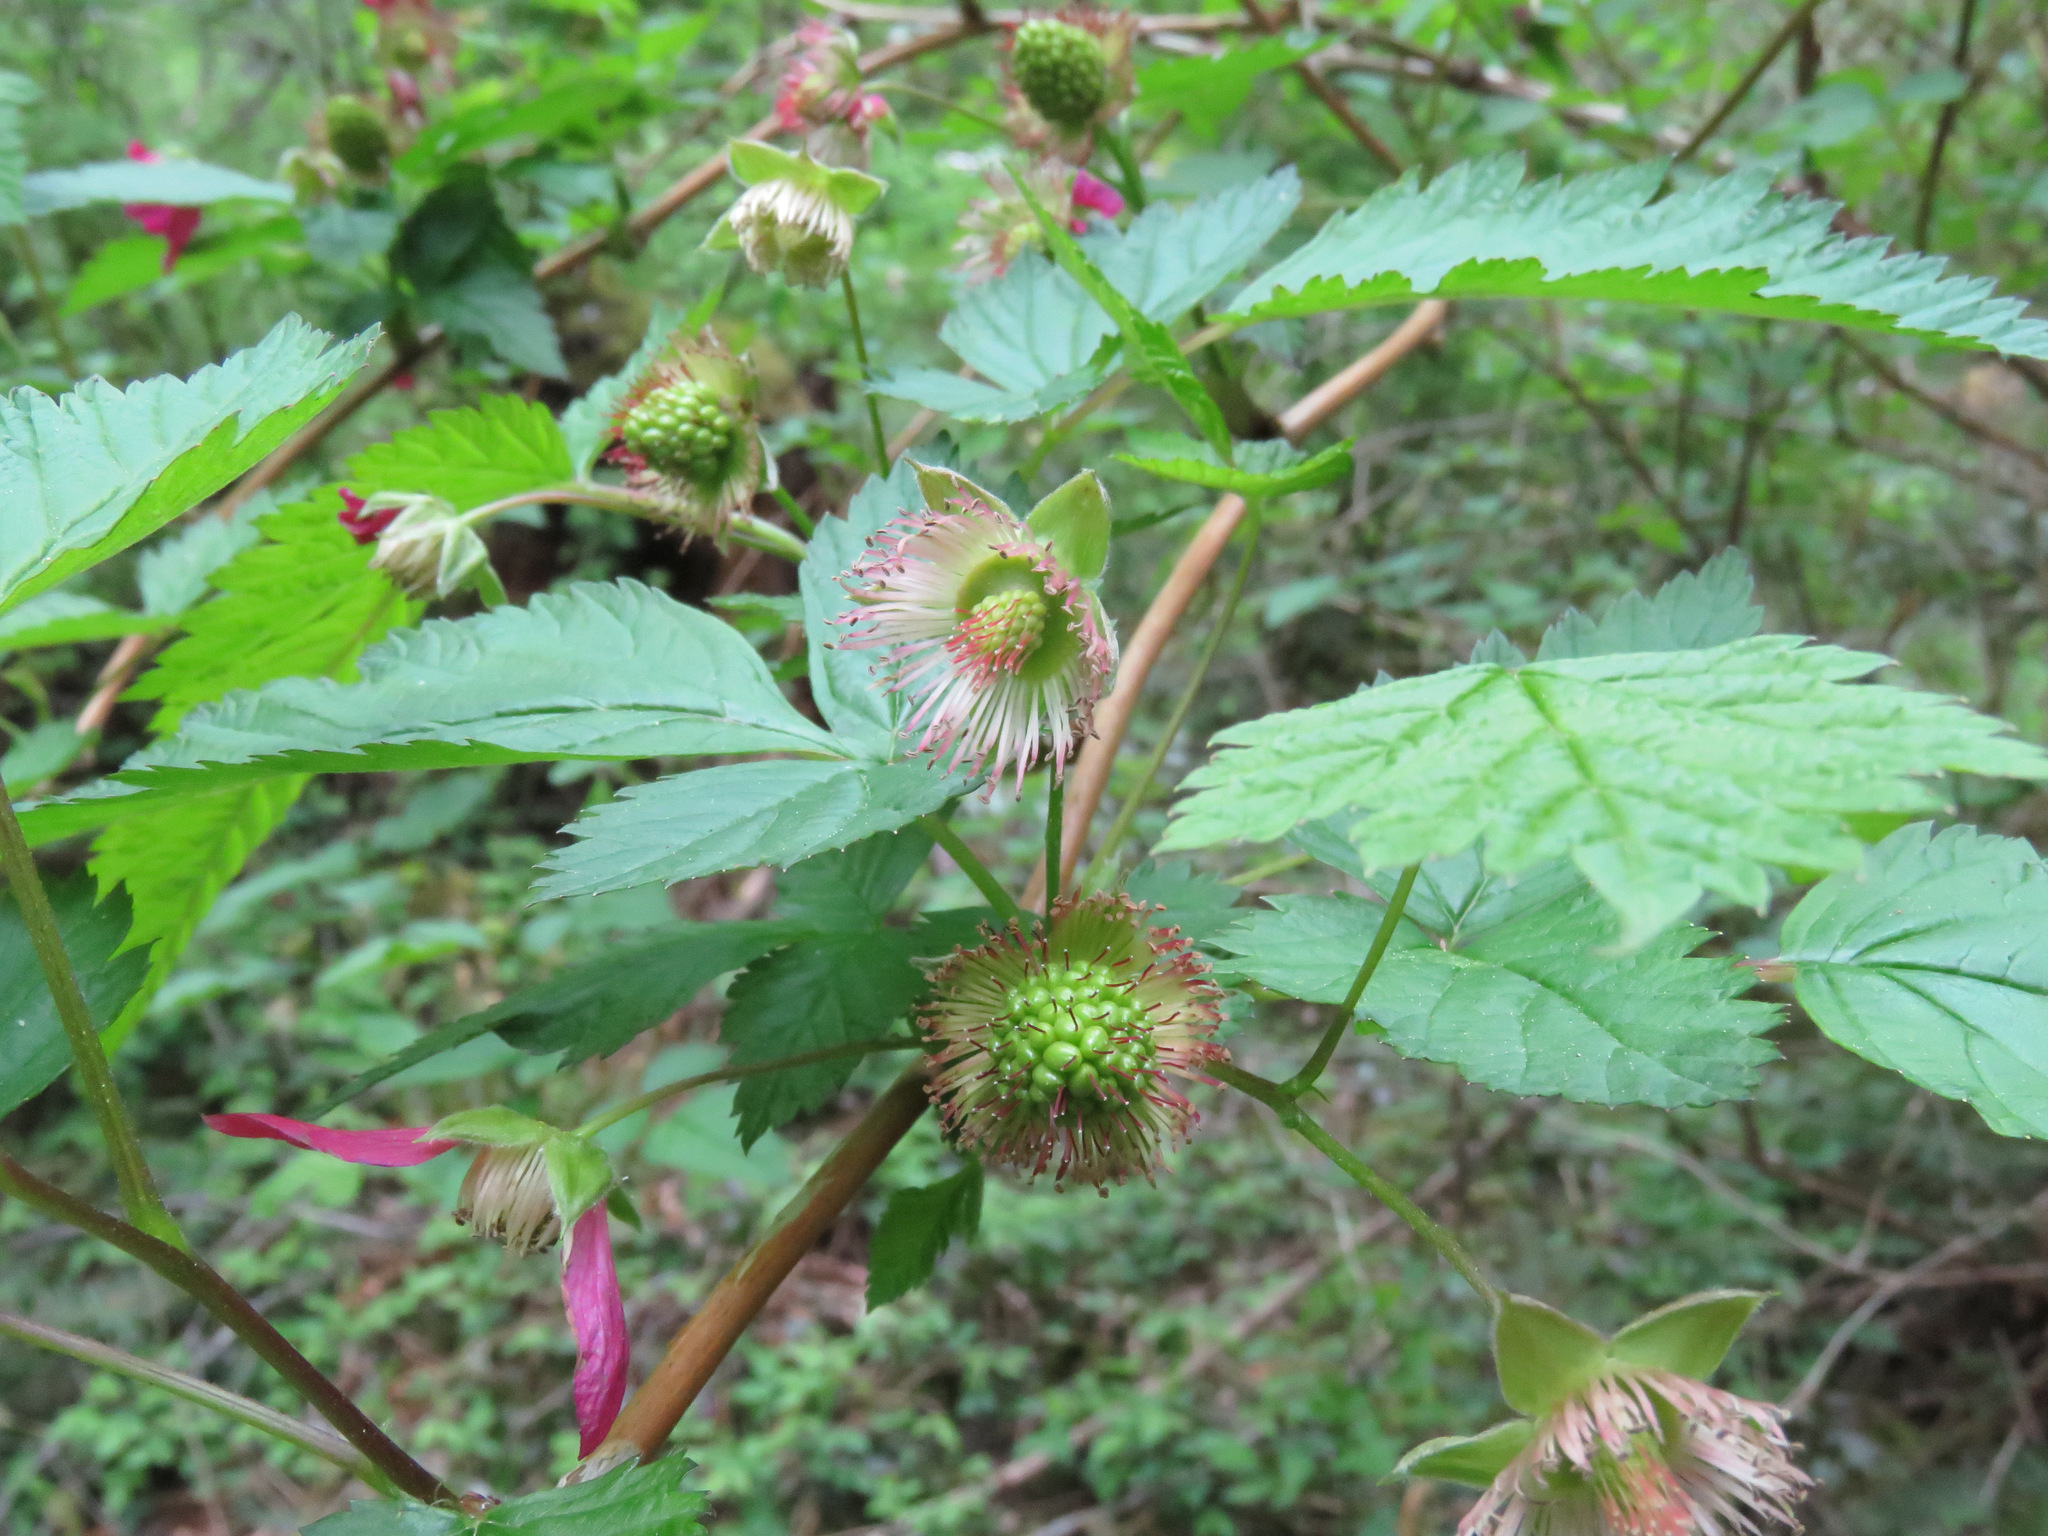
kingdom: Plantae
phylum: Tracheophyta
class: Magnoliopsida
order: Rosales
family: Rosaceae
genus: Rubus
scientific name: Rubus spectabilis
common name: Salmonberry
